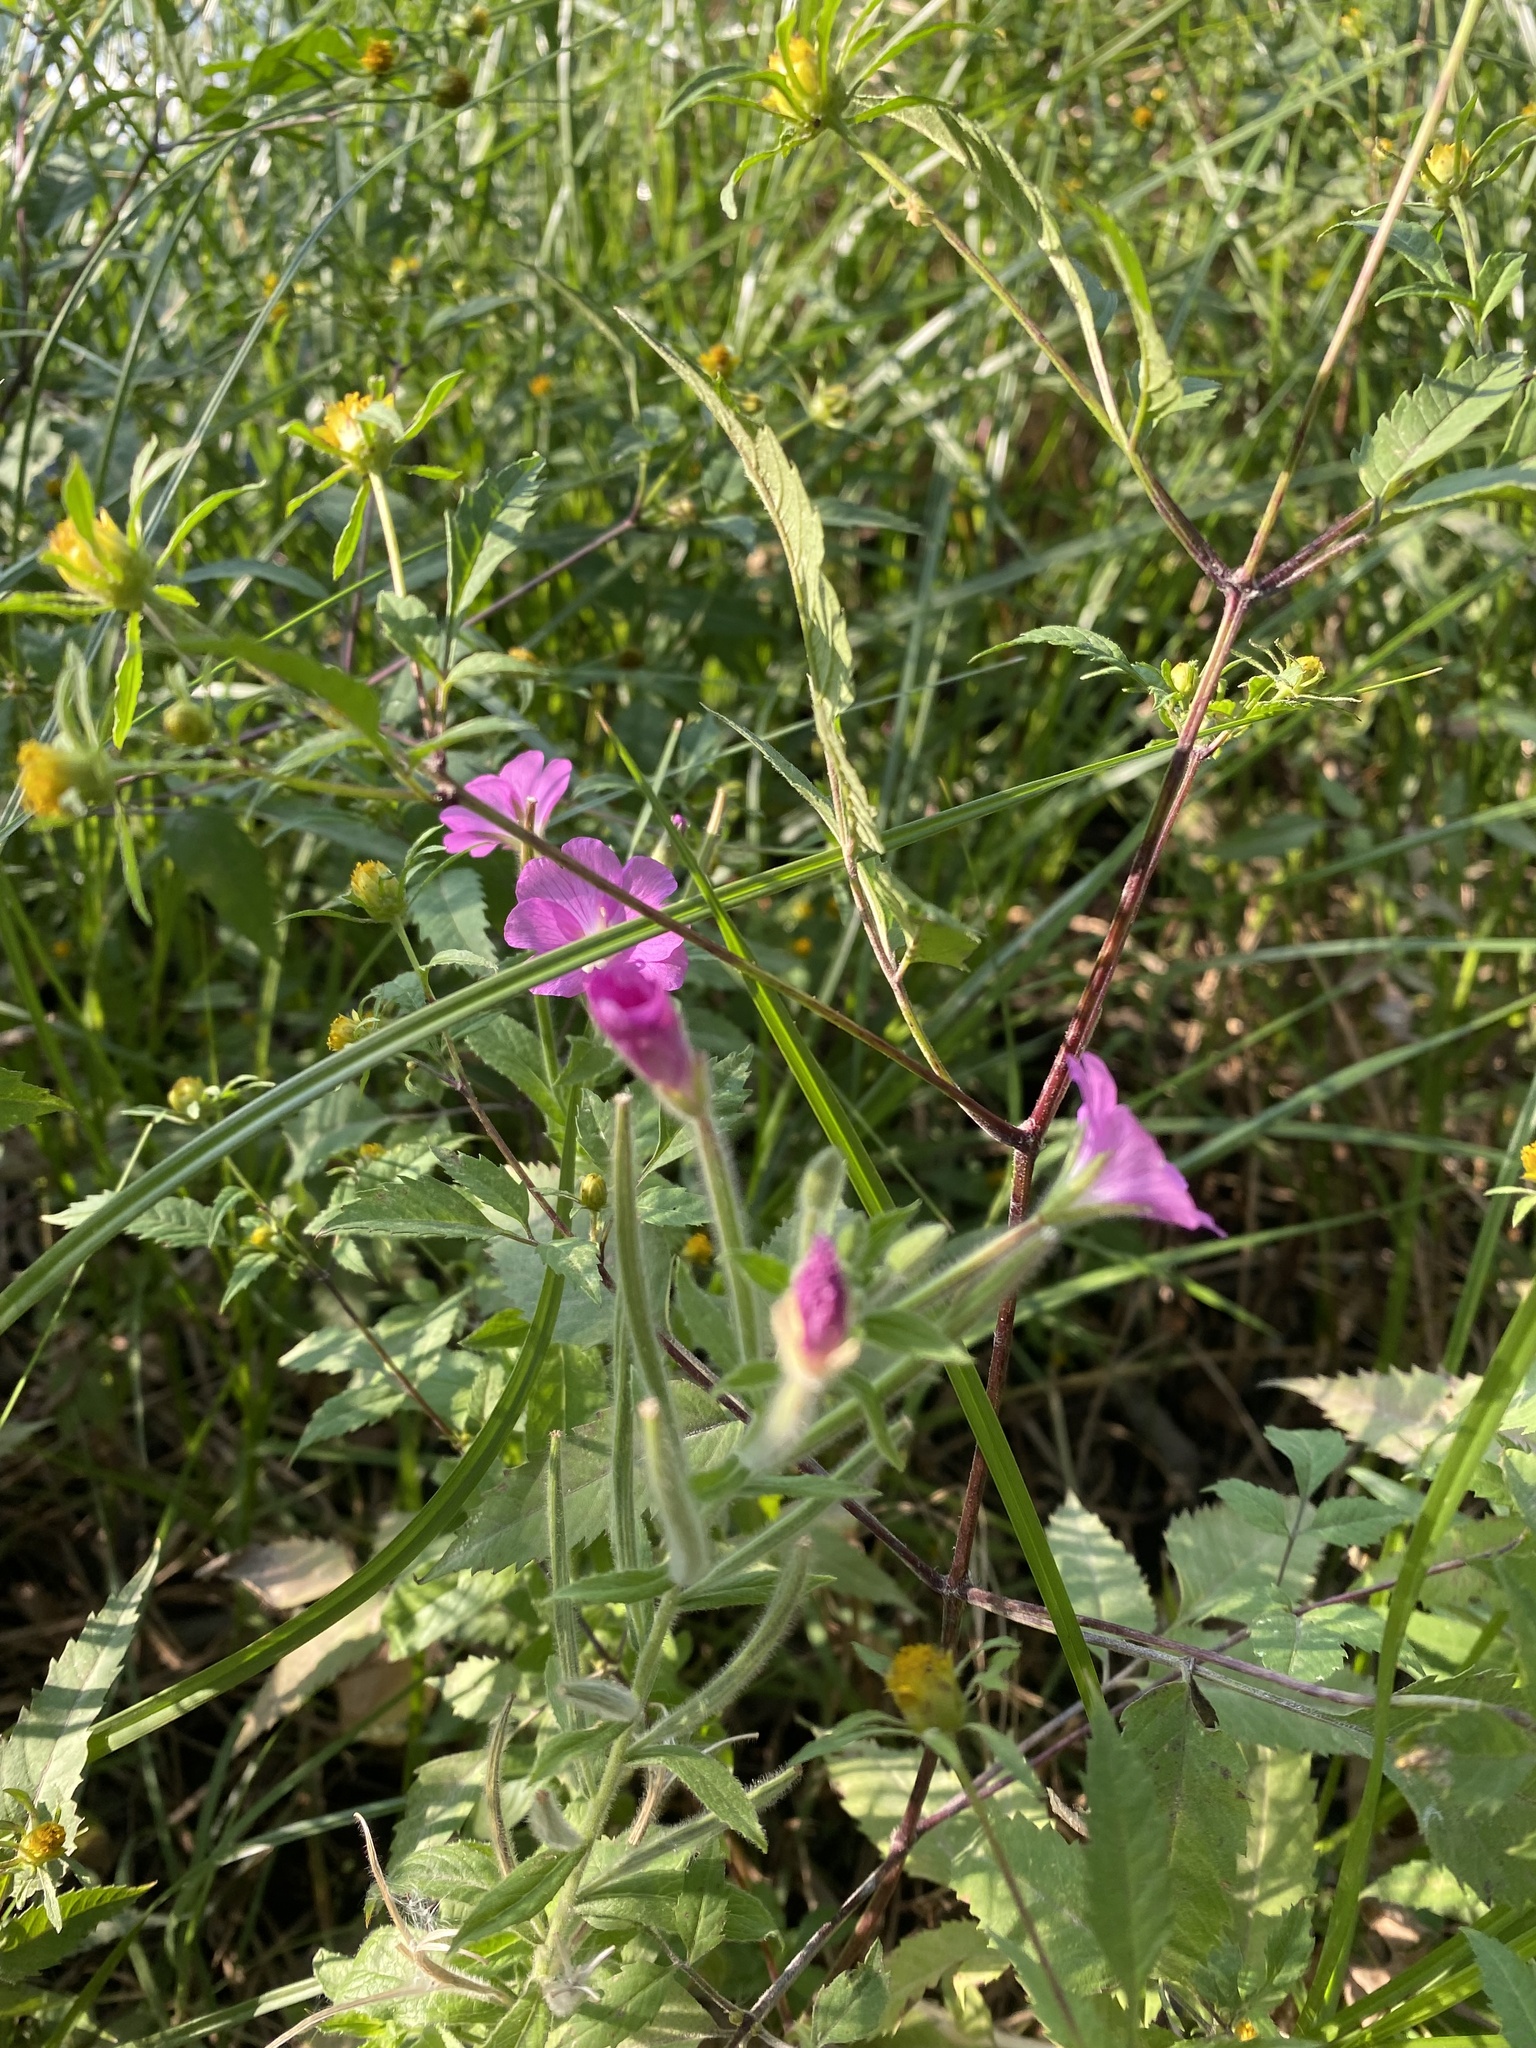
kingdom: Plantae
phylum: Tracheophyta
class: Magnoliopsida
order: Myrtales
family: Onagraceae
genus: Epilobium
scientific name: Epilobium hirsutum
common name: Great willowherb
